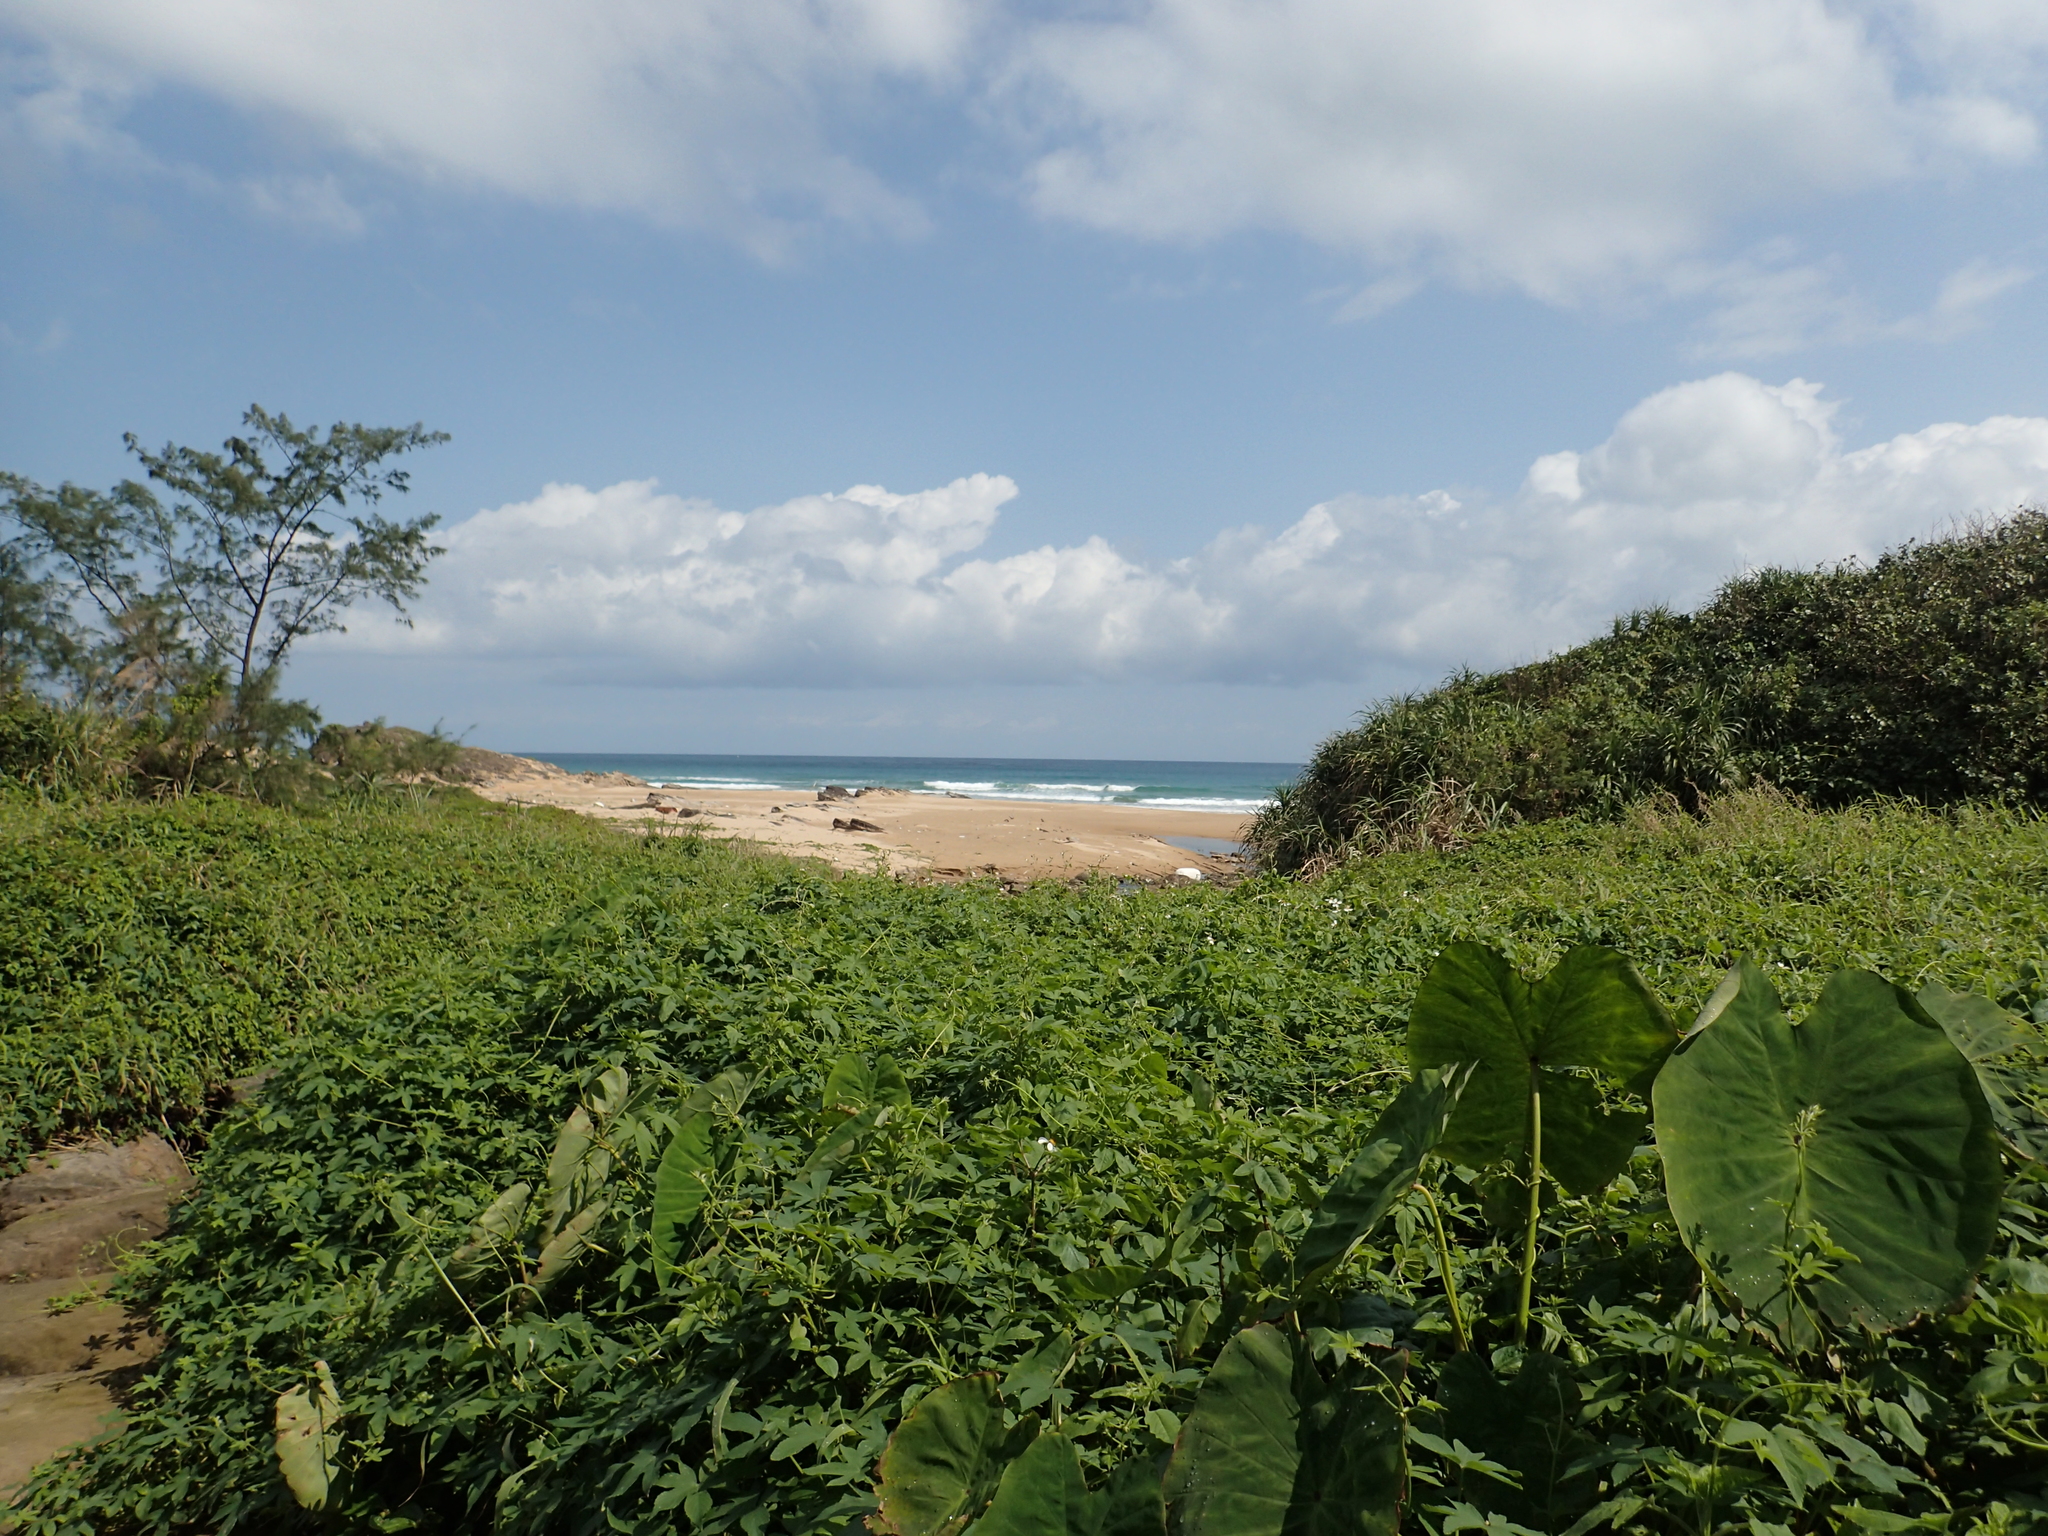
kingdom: Plantae
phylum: Tracheophyta
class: Liliopsida
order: Alismatales
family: Araceae
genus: Colocasia
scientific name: Colocasia esculenta
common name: Taro
